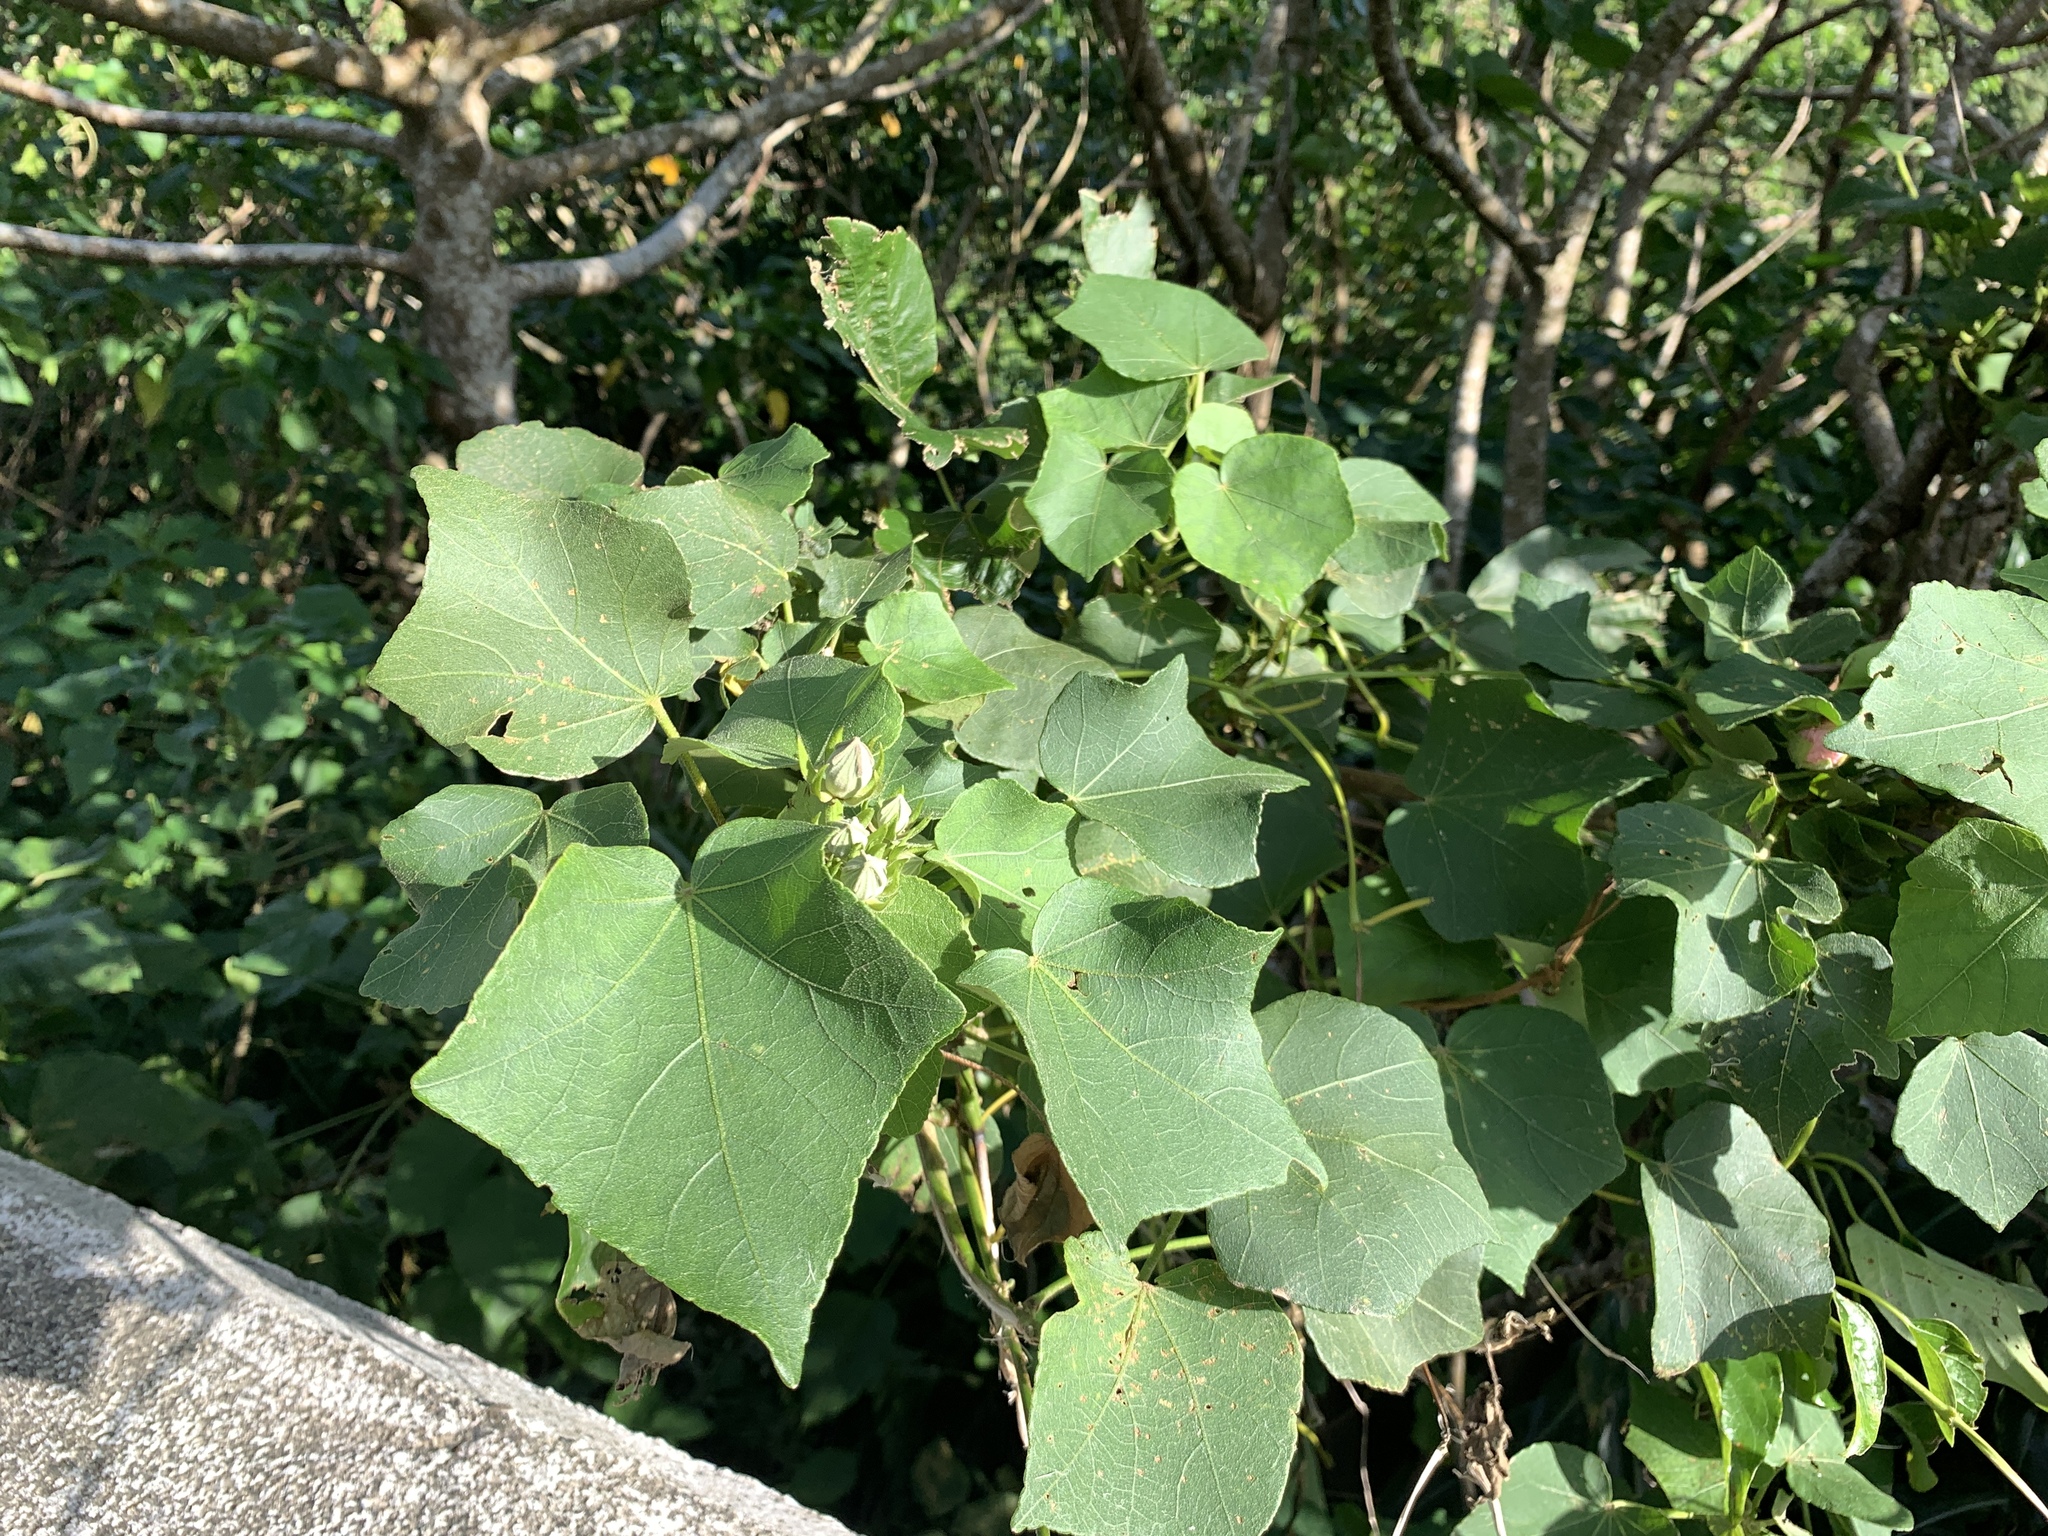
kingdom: Plantae
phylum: Tracheophyta
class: Magnoliopsida
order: Malvales
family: Malvaceae
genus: Hibiscus
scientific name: Hibiscus taiwanensis
